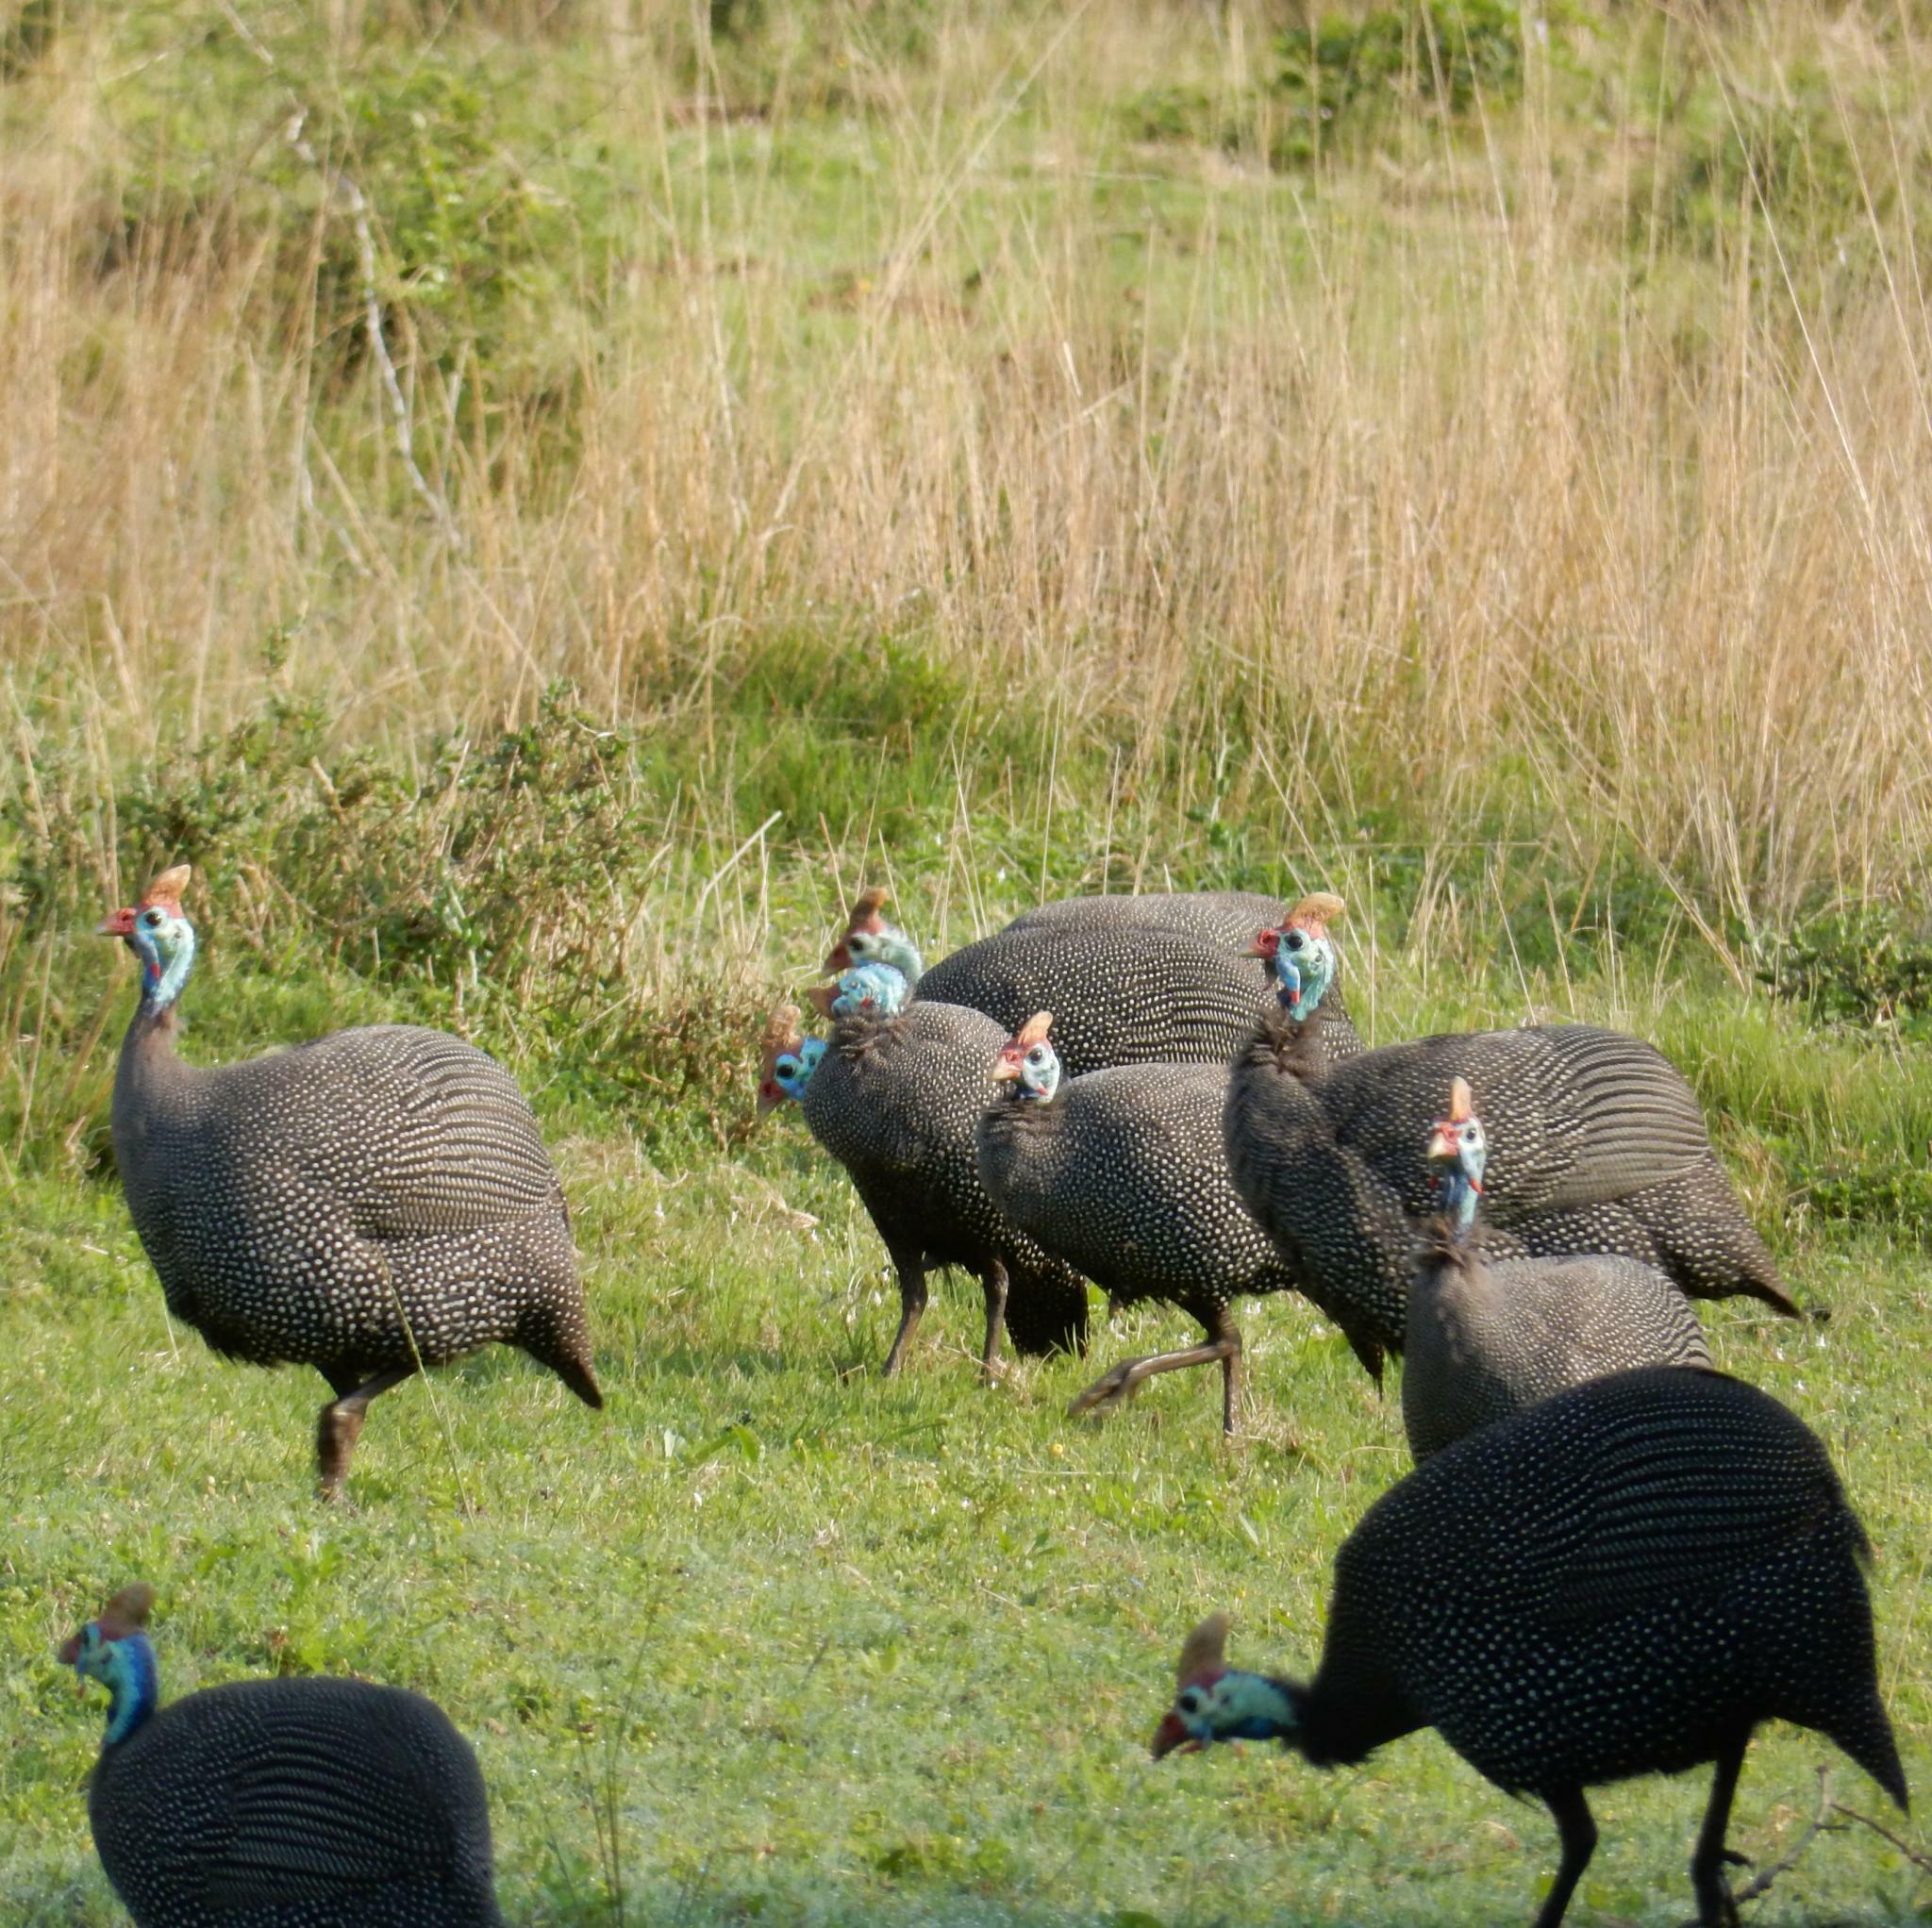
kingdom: Animalia
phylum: Chordata
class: Aves
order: Galliformes
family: Numididae
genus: Numida
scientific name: Numida meleagris
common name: Helmeted guineafowl
